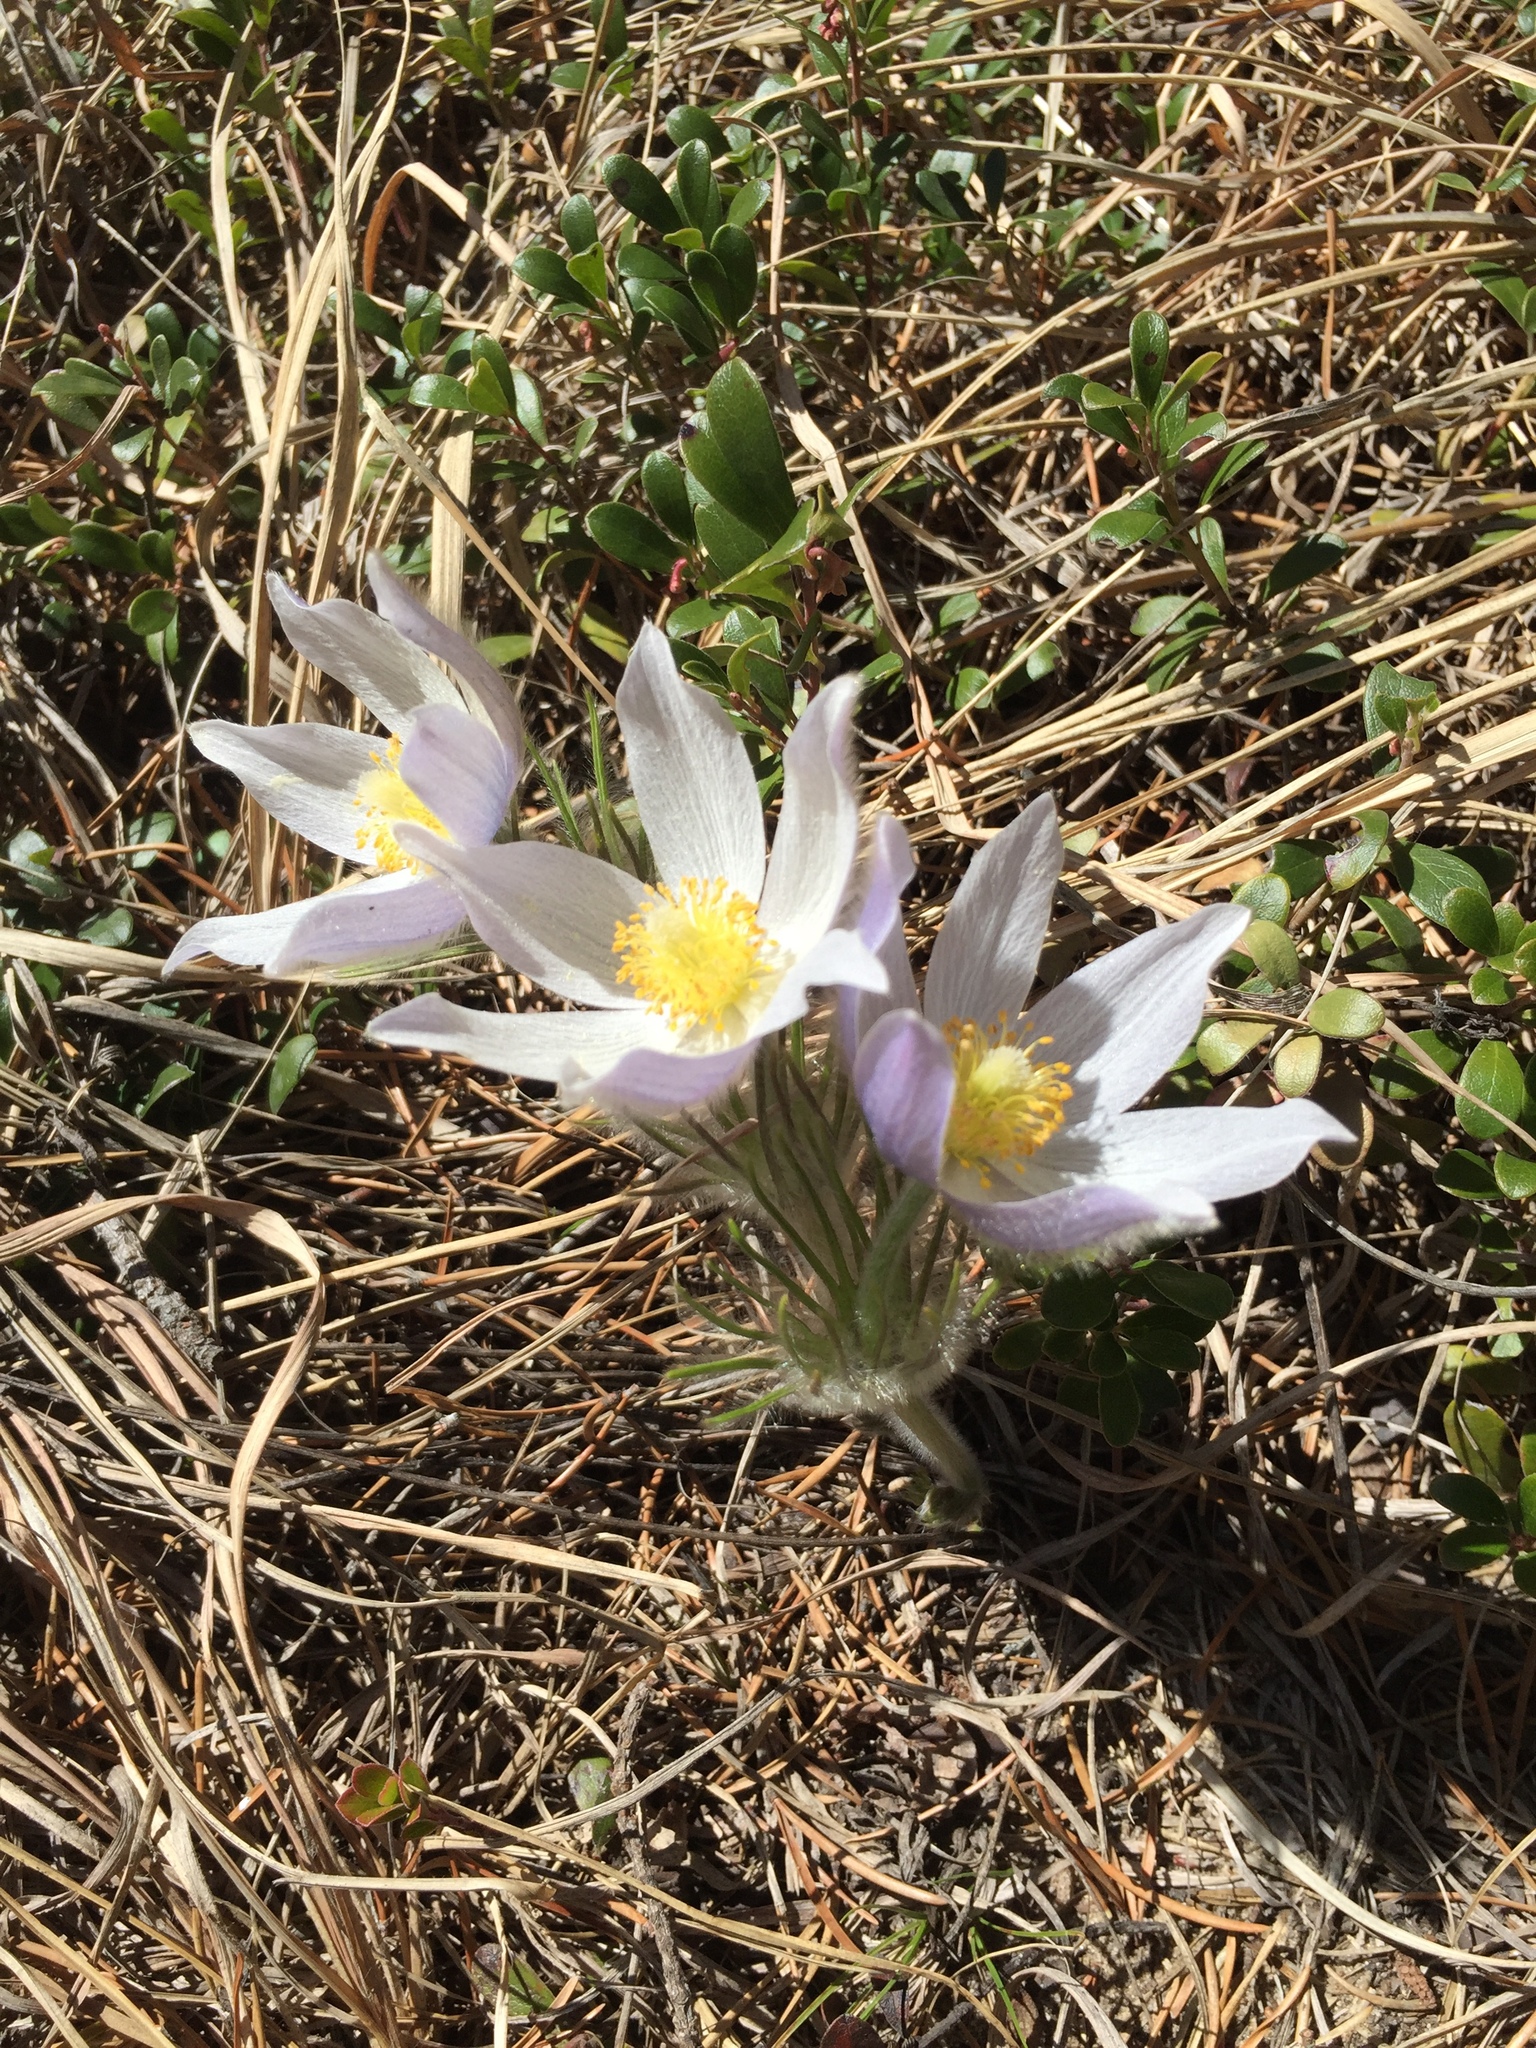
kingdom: Plantae
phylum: Tracheophyta
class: Magnoliopsida
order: Ranunculales
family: Ranunculaceae
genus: Pulsatilla
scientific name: Pulsatilla nuttalliana
